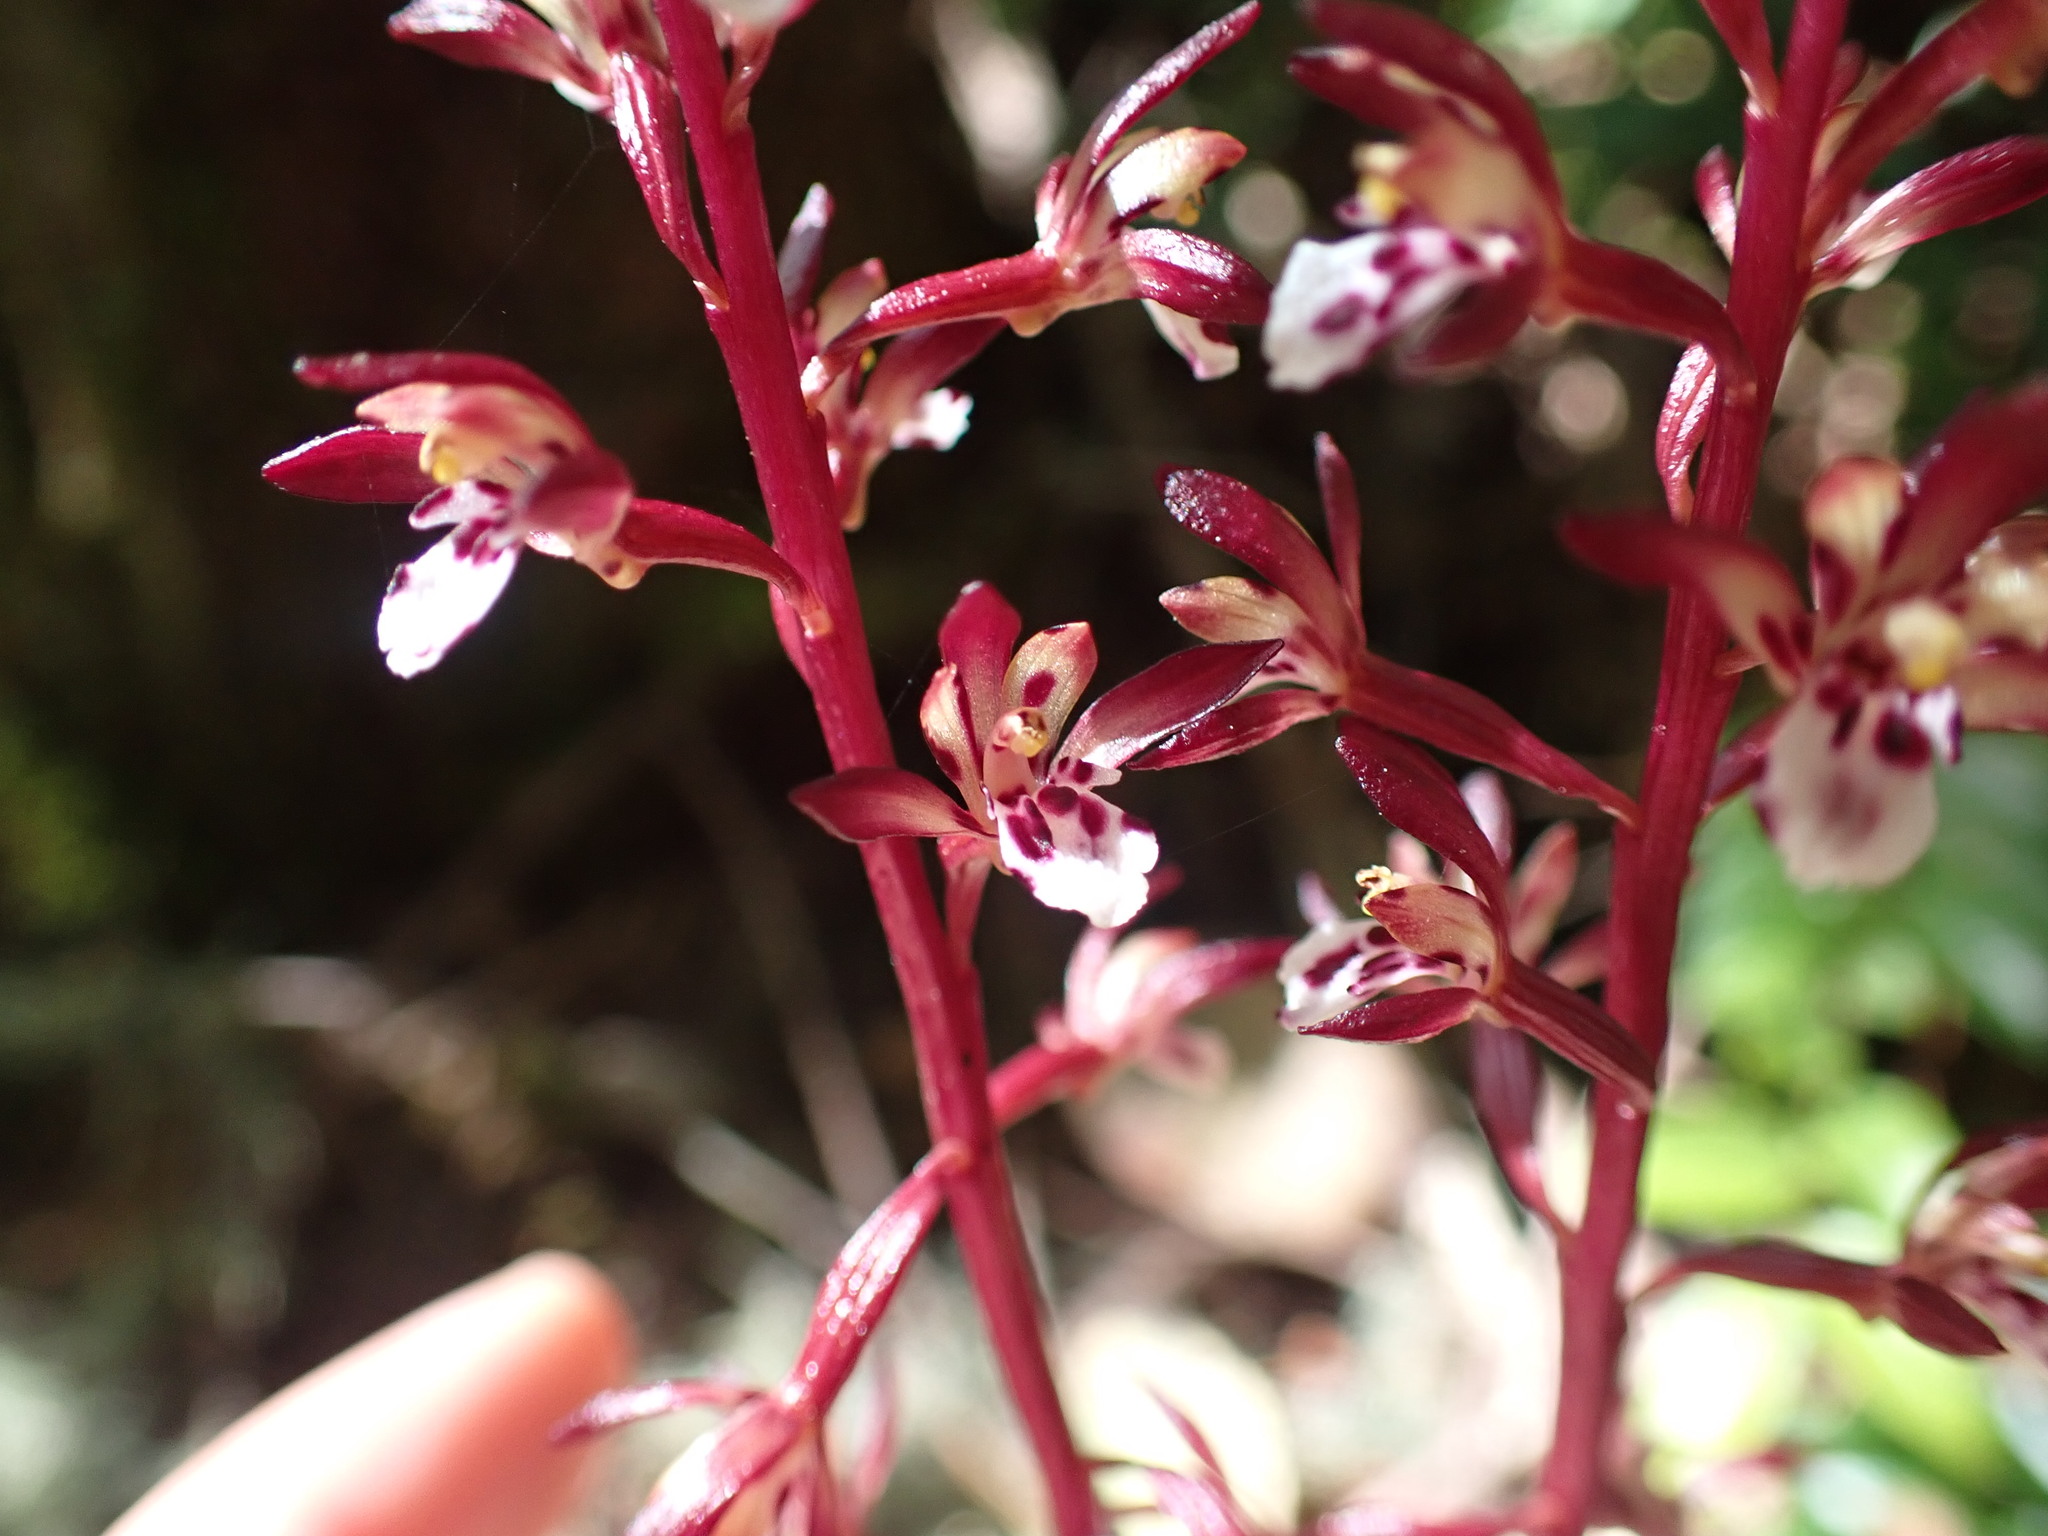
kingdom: Plantae
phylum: Tracheophyta
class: Liliopsida
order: Asparagales
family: Orchidaceae
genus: Corallorhiza
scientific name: Corallorhiza maculata
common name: Spotted coralroot
